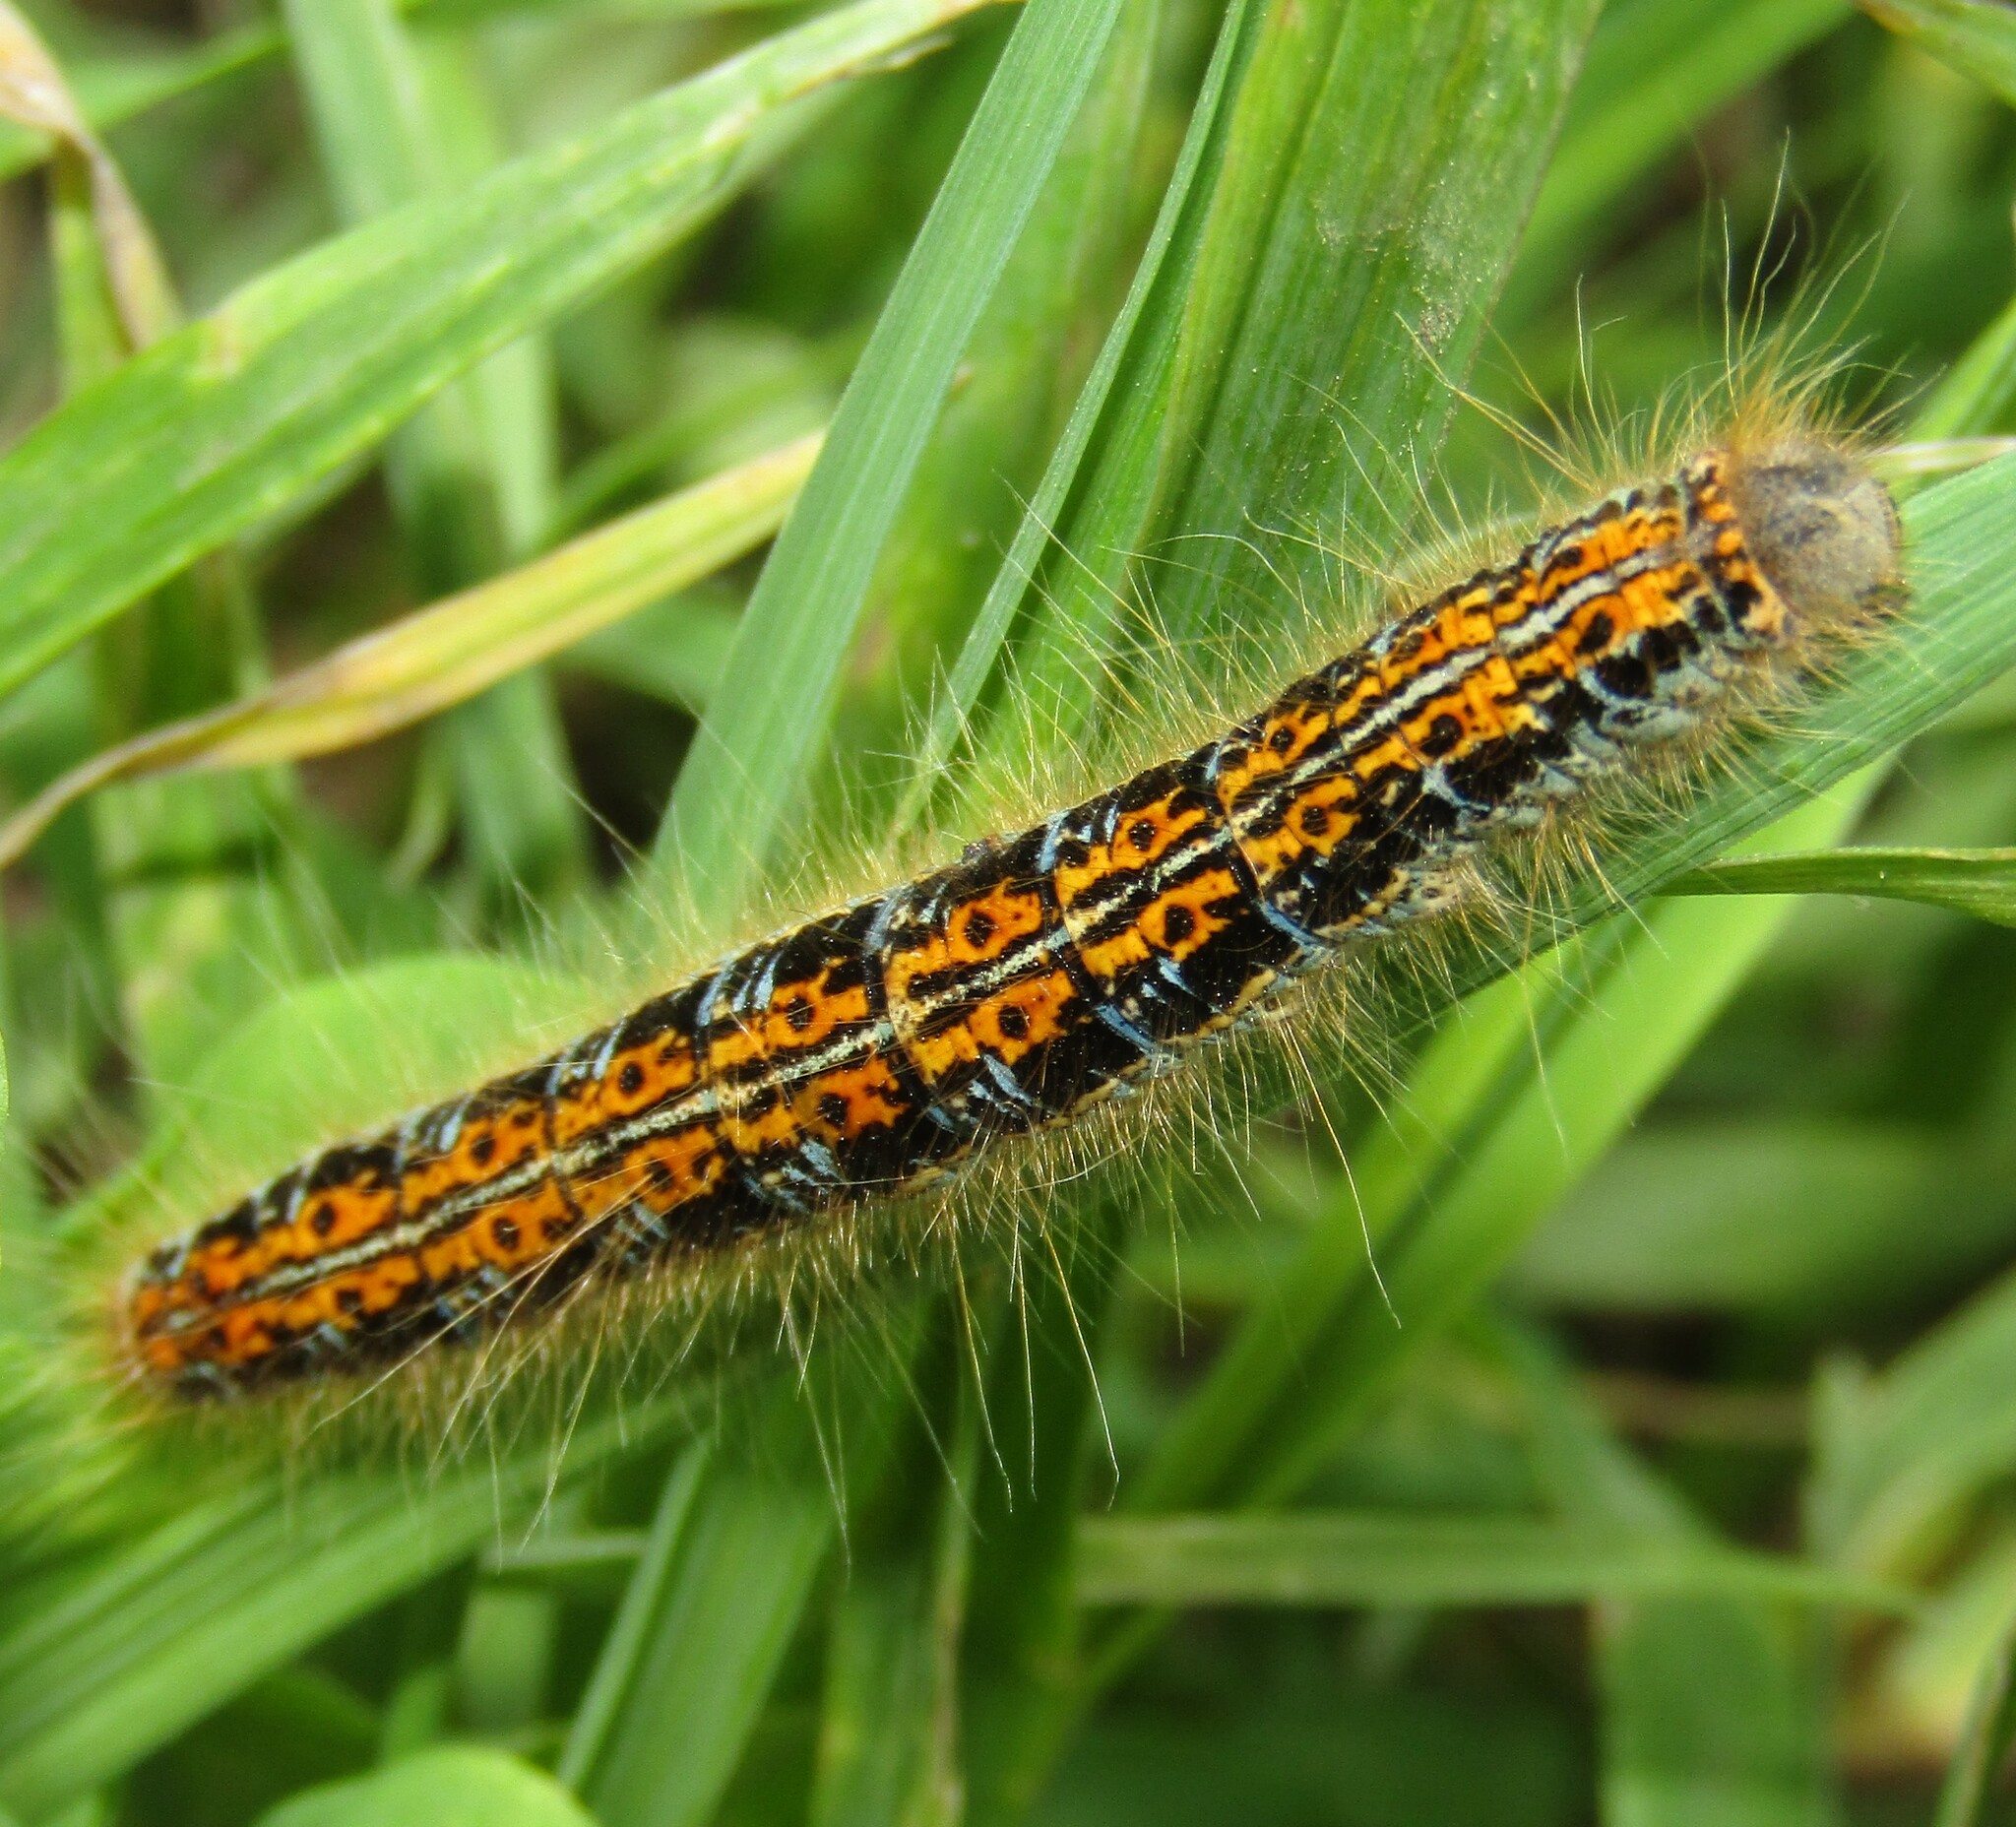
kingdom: Animalia
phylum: Arthropoda
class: Insecta
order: Lepidoptera
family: Lasiocampidae
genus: Malacosoma
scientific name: Malacosoma castrense
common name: Ground lackey
